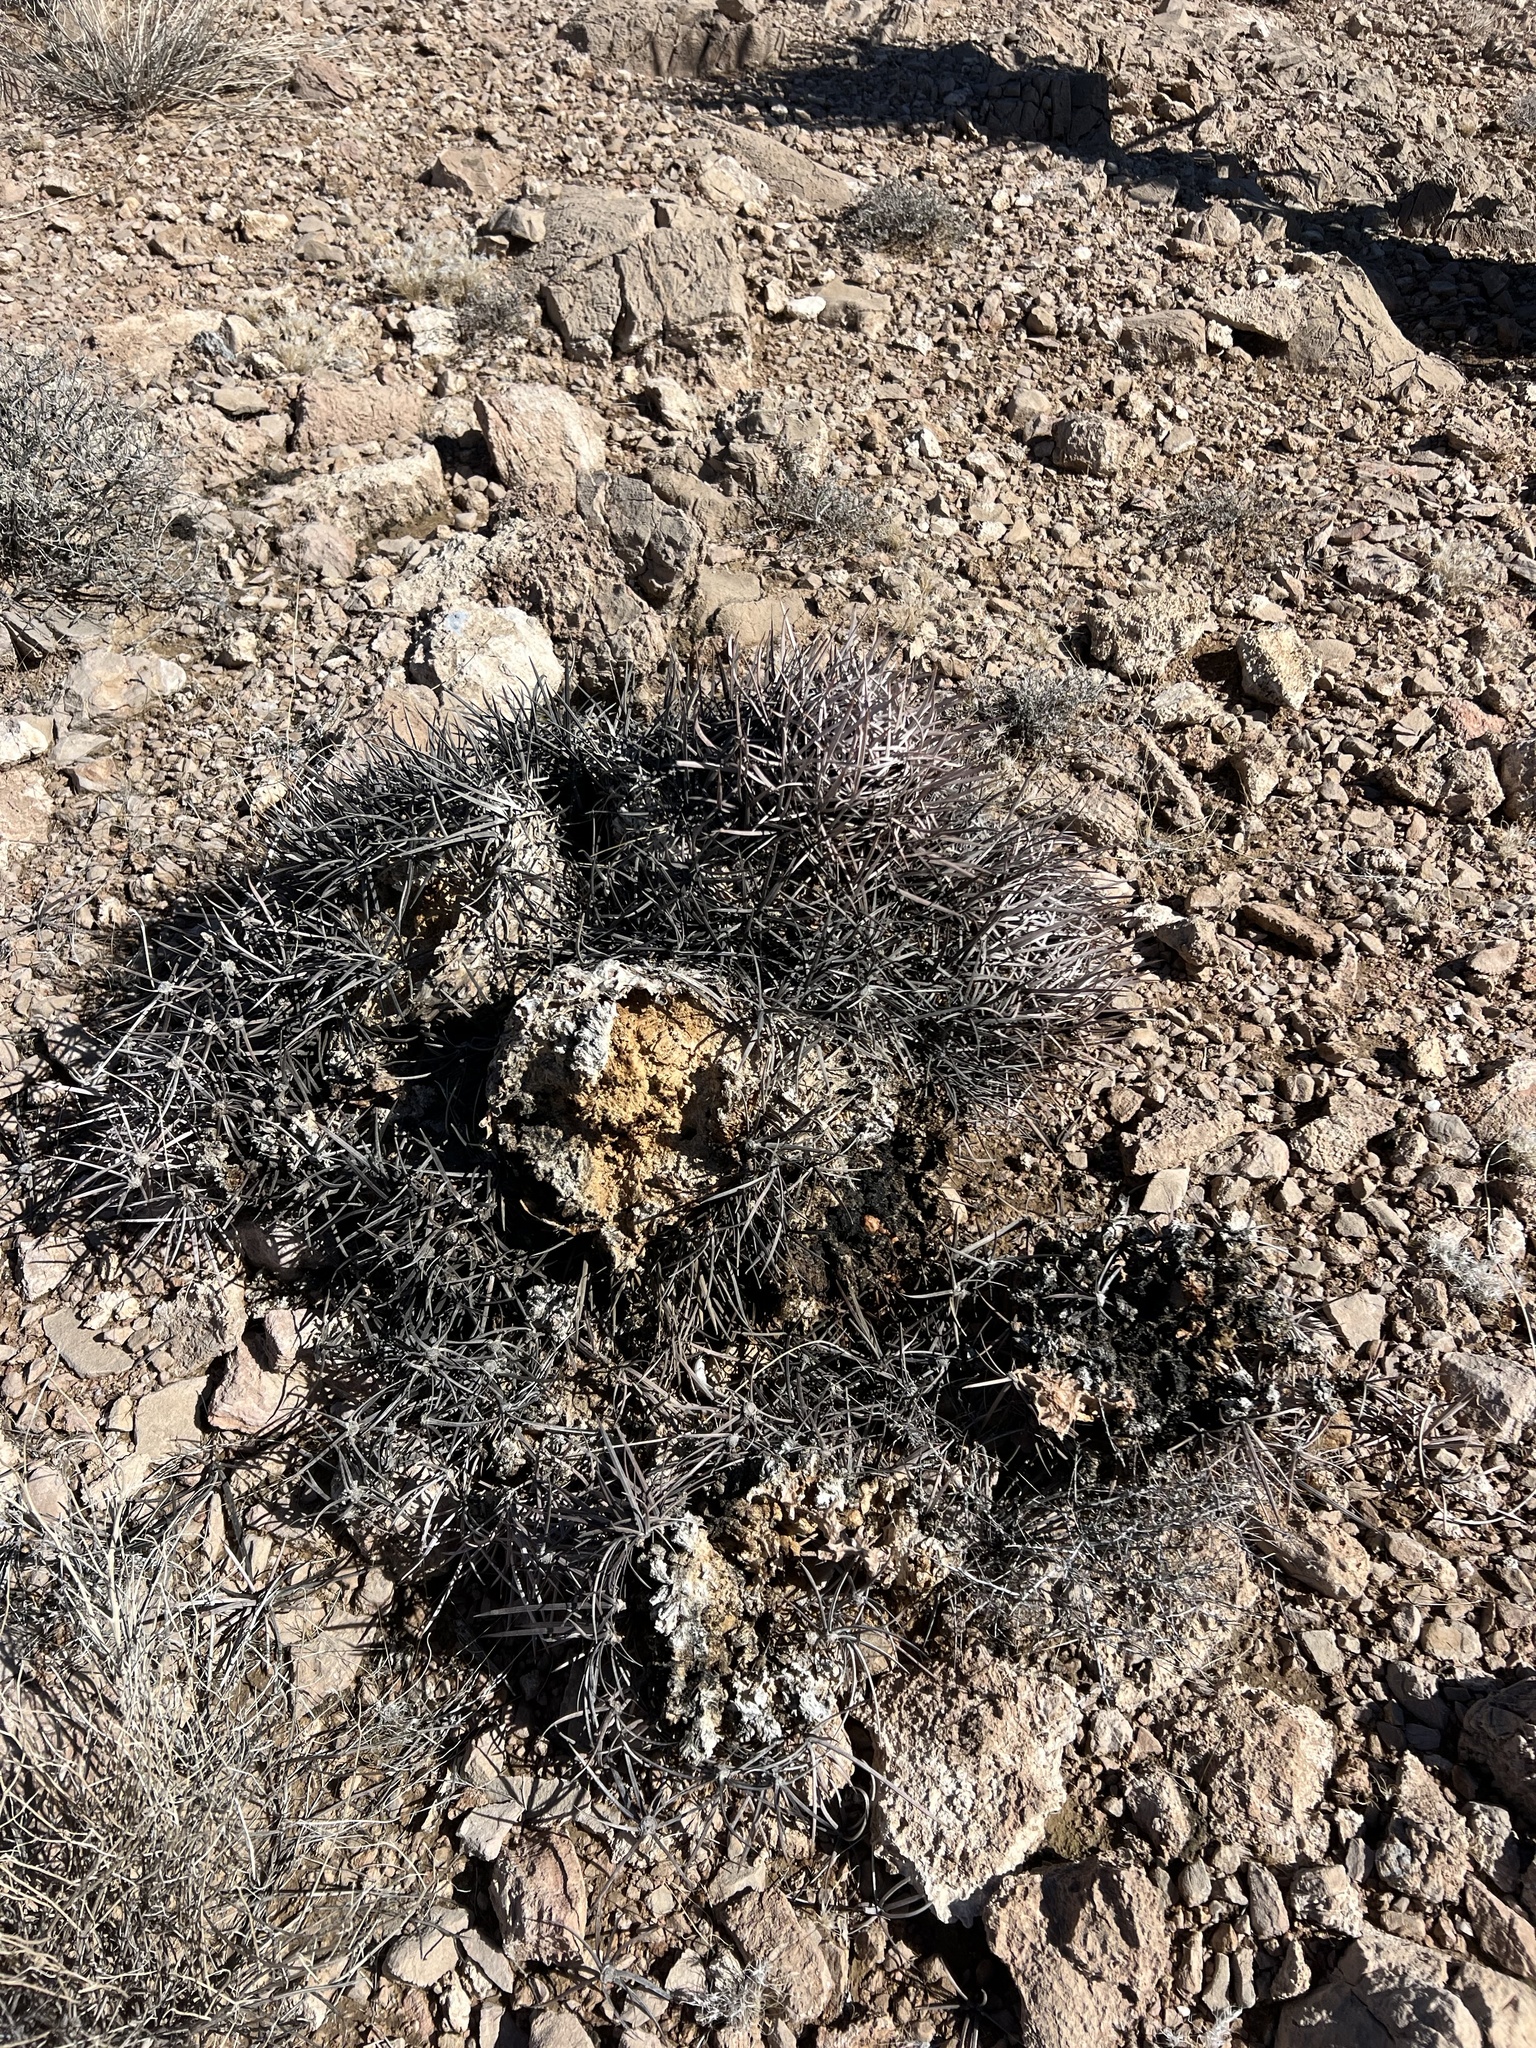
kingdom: Plantae
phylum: Tracheophyta
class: Magnoliopsida
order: Caryophyllales
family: Cactaceae
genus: Echinocactus
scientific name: Echinocactus polycephalus
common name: Cottontop cactus
